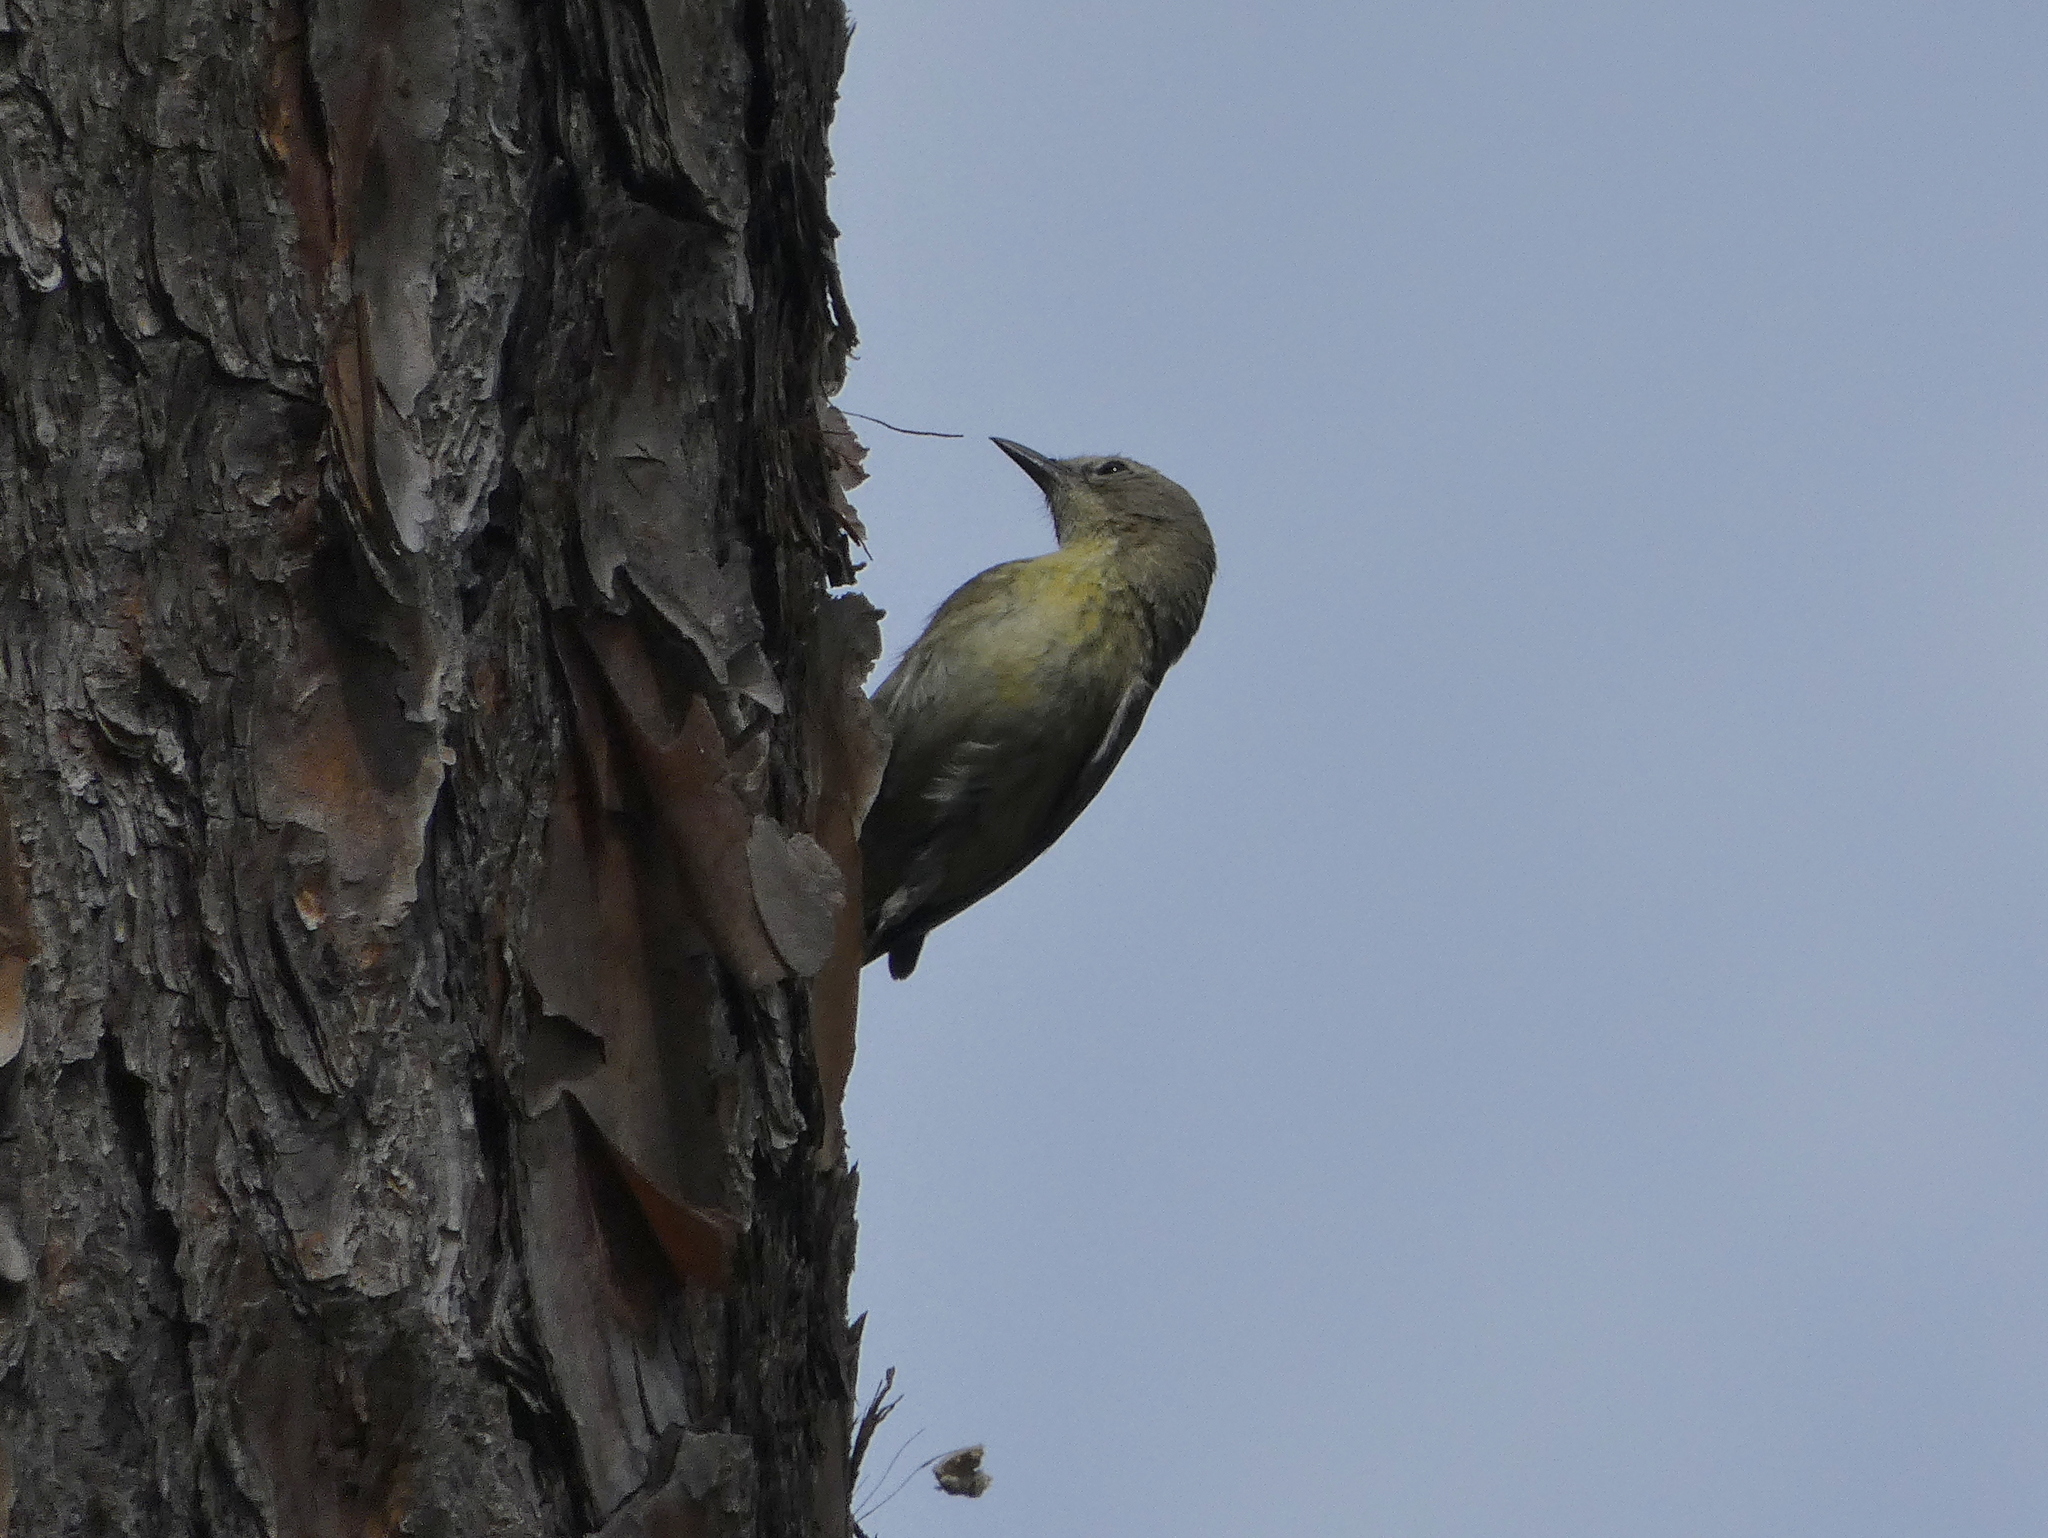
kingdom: Animalia
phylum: Chordata
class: Aves
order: Passeriformes
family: Parulidae
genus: Setophaga
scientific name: Setophaga pinus
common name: Pine warbler
